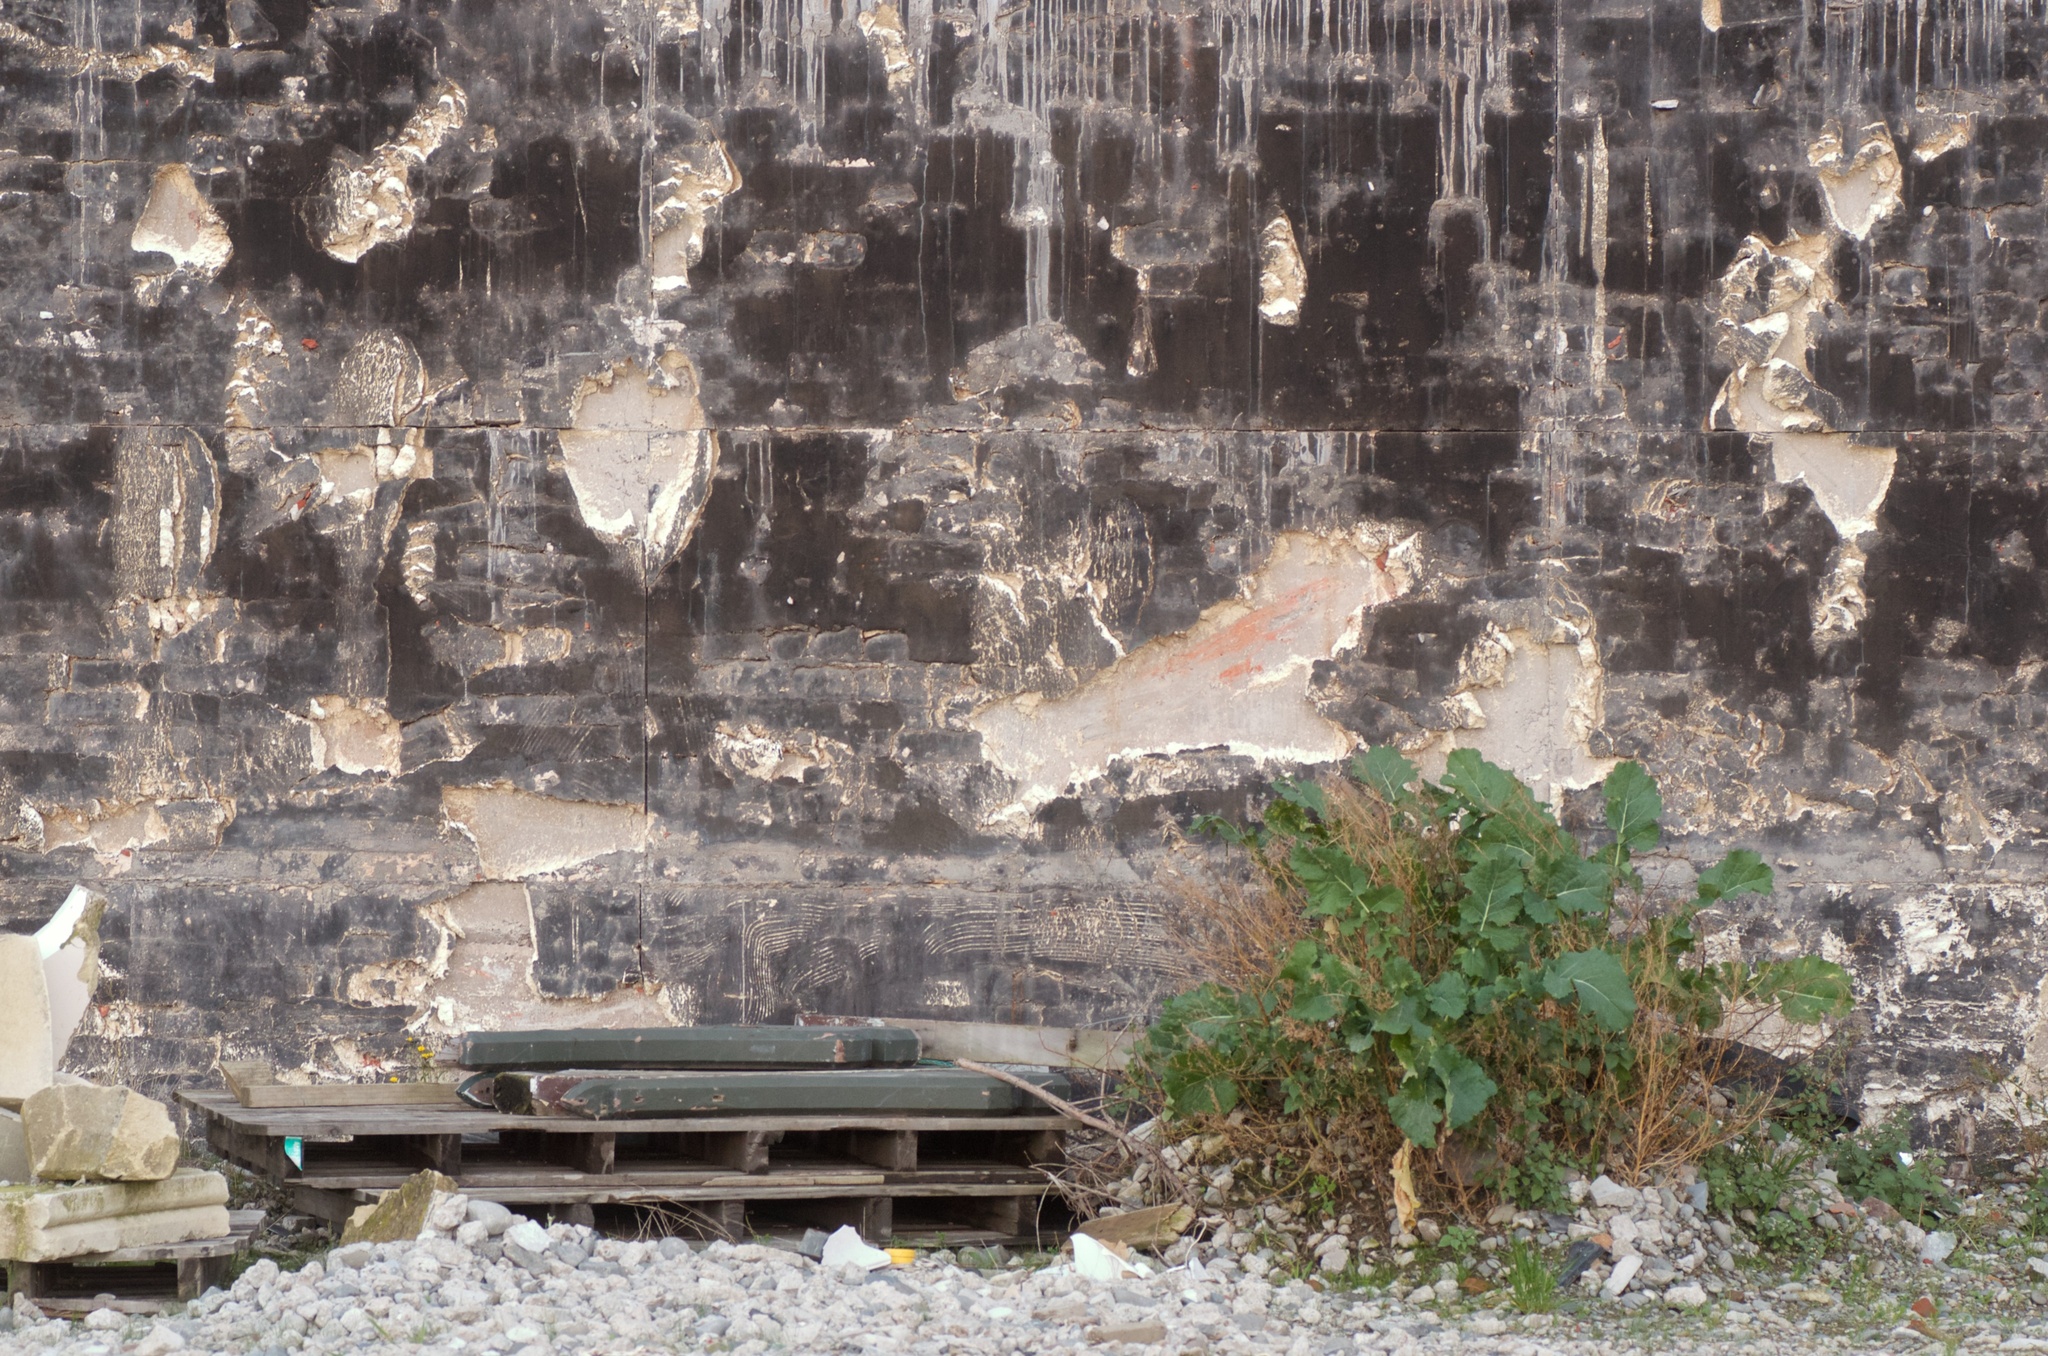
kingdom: Plantae
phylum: Tracheophyta
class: Magnoliopsida
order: Brassicales
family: Brassicaceae
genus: Brassica
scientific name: Brassica oleracea
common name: Cabbage
